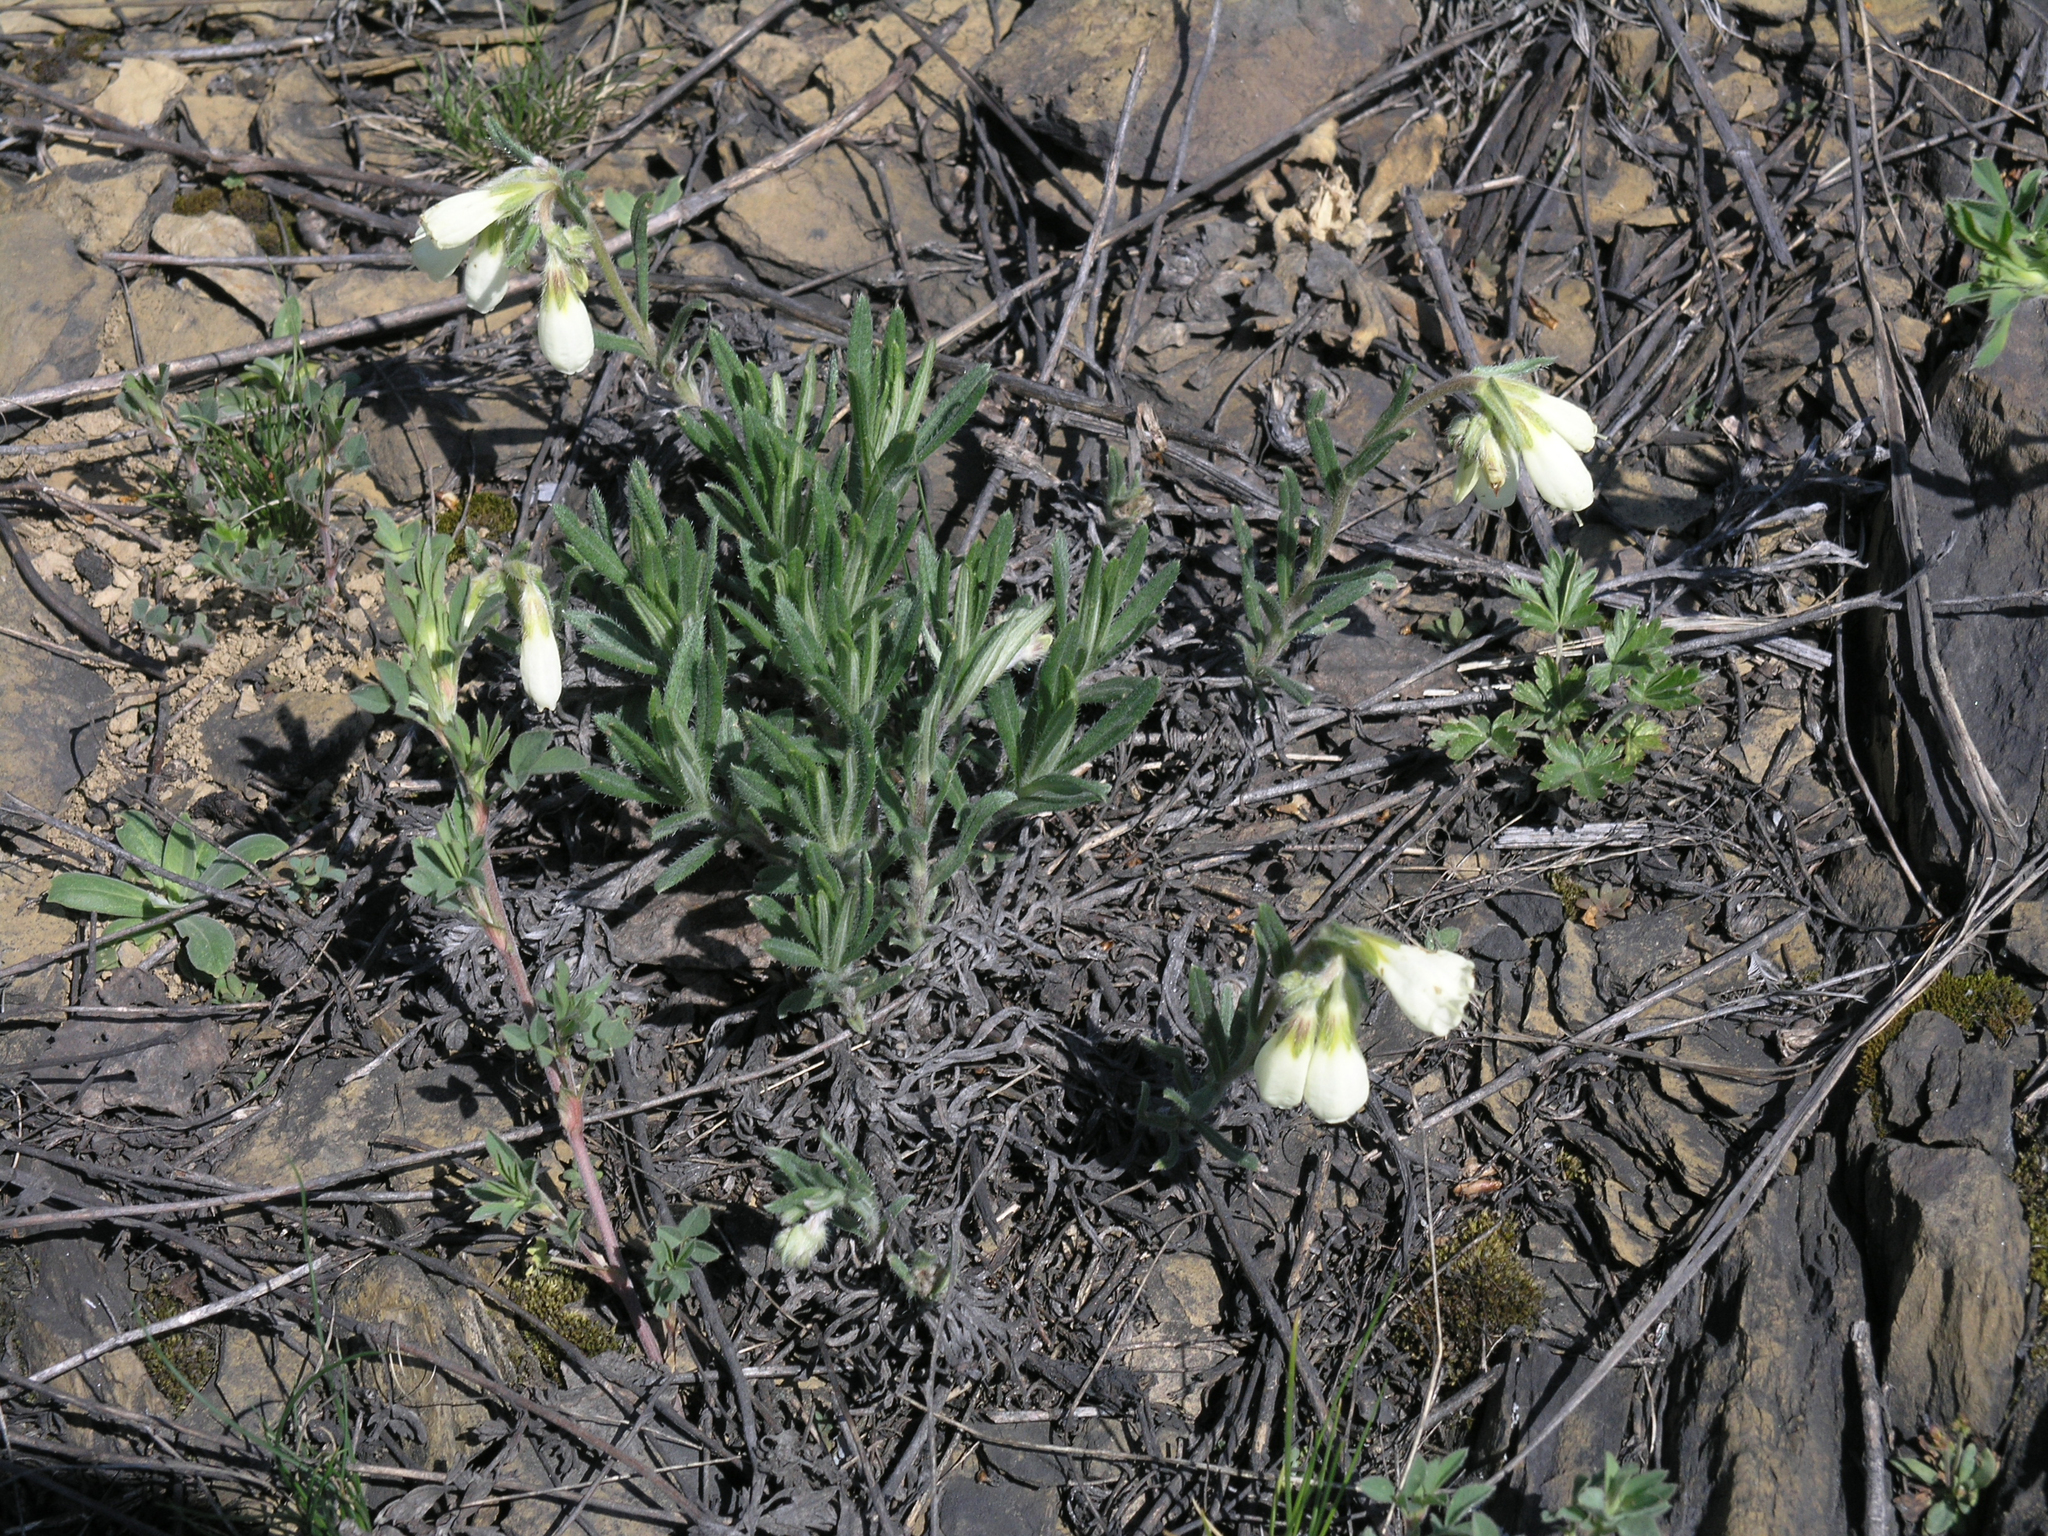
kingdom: Plantae
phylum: Tracheophyta
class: Magnoliopsida
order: Boraginales
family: Boraginaceae
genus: Onosma
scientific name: Onosma simplicissima
